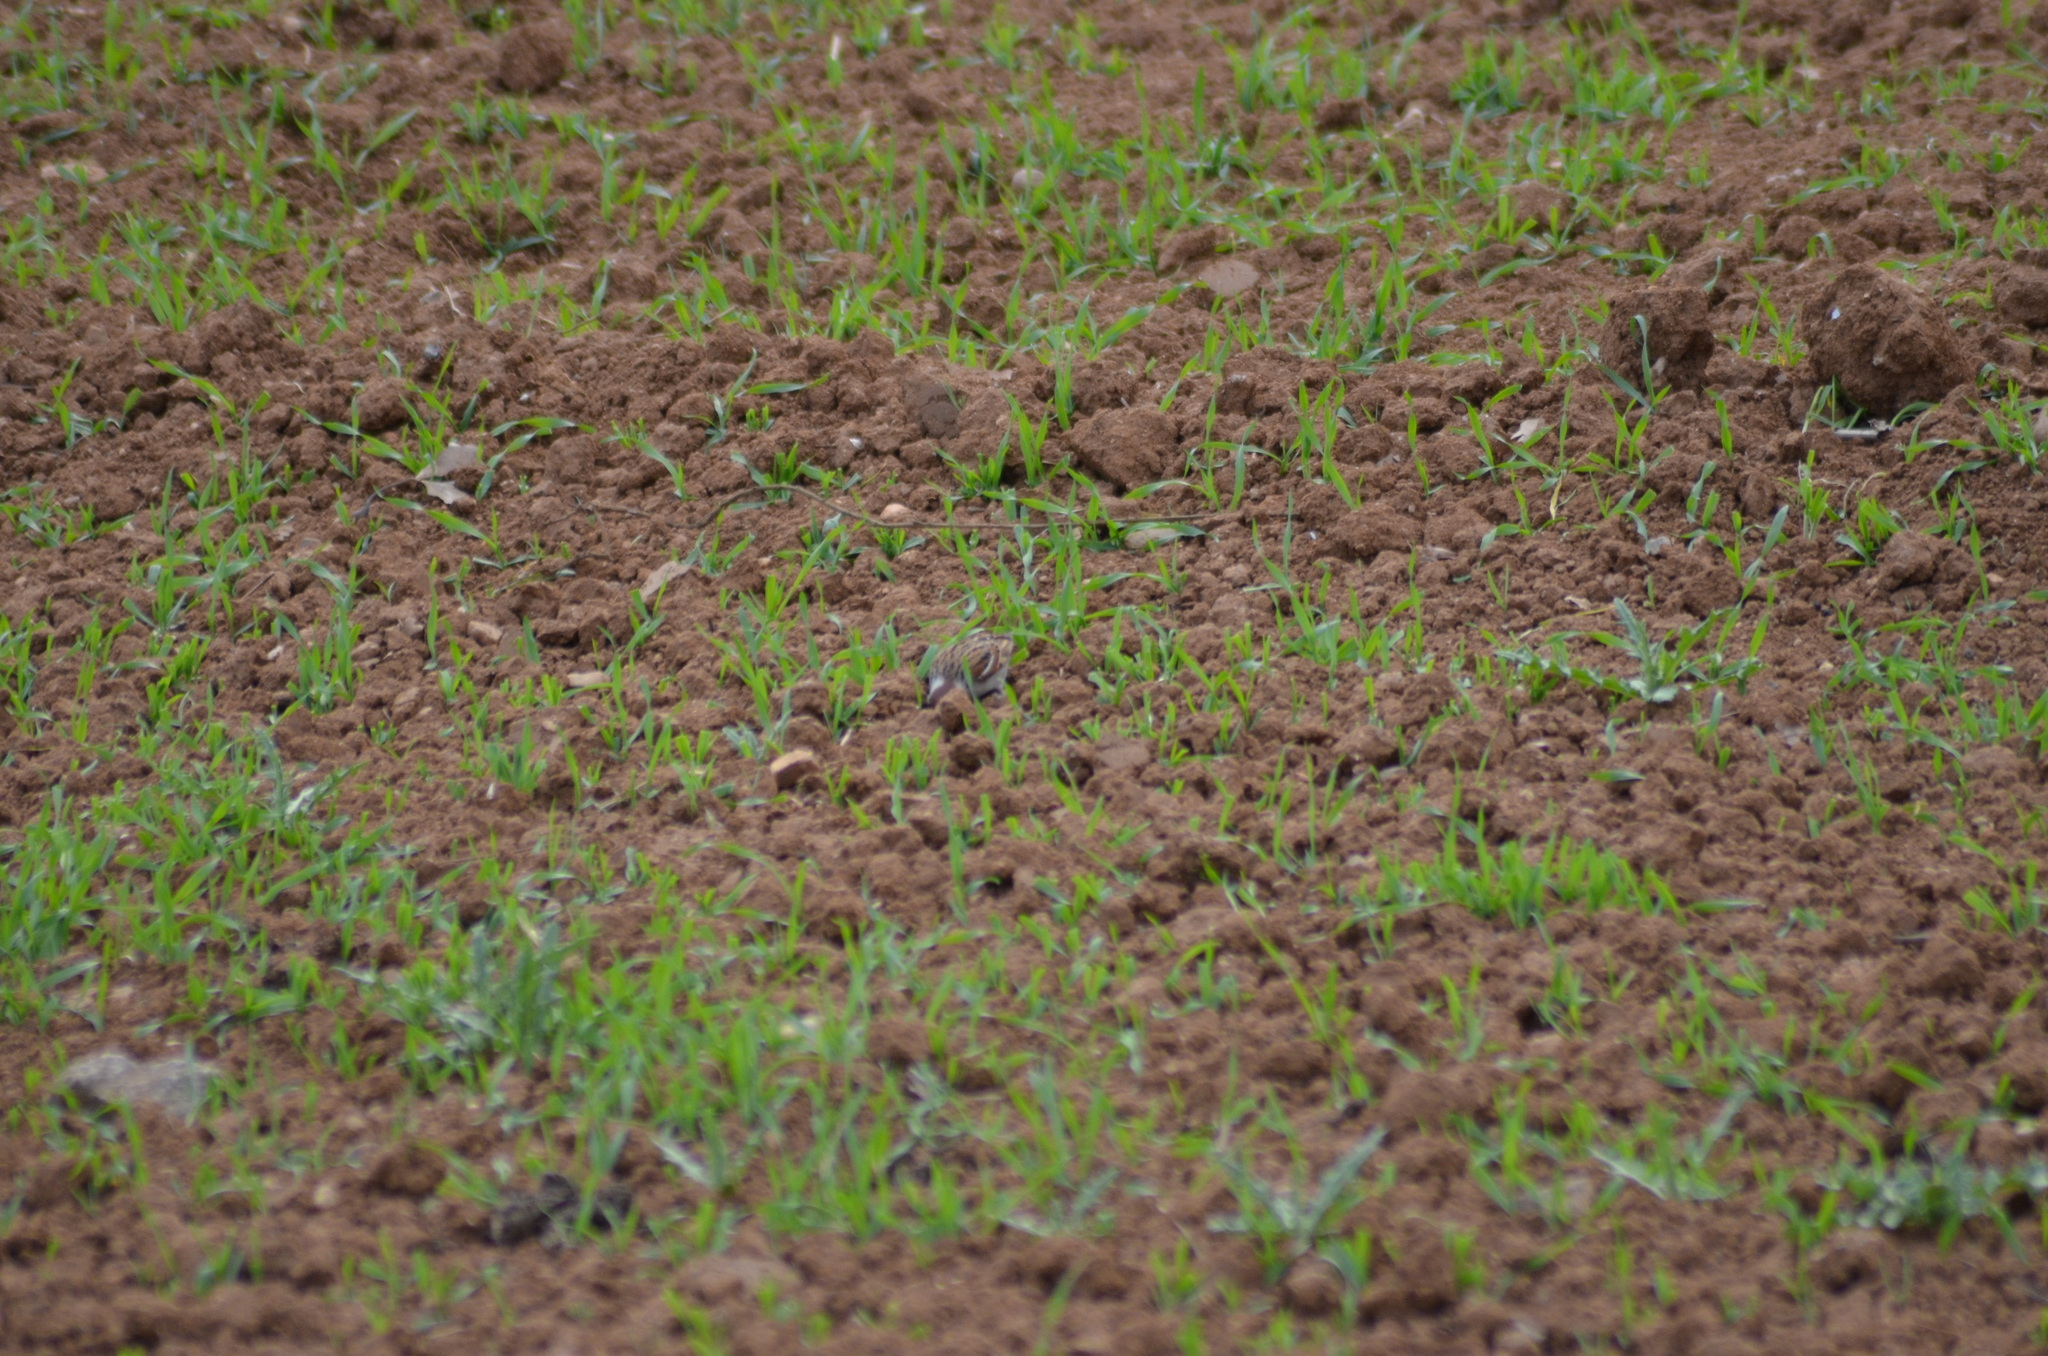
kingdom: Animalia
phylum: Chordata
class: Aves
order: Passeriformes
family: Passeridae
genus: Passer
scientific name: Passer montanus
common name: Eurasian tree sparrow
